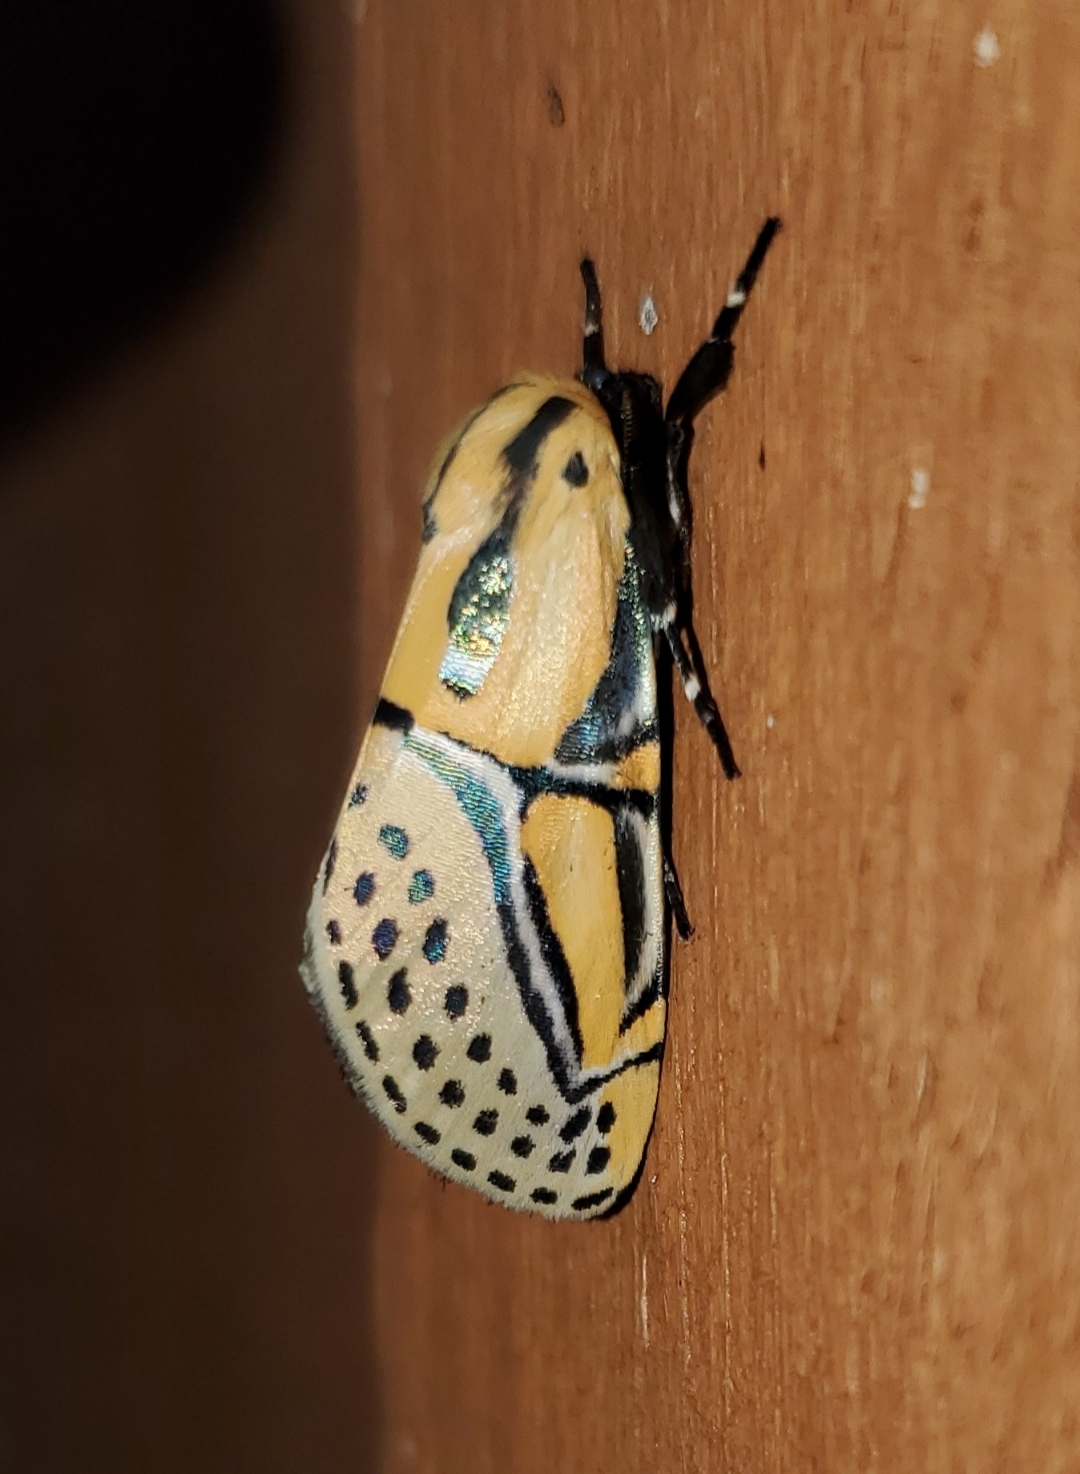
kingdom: Animalia
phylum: Arthropoda
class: Insecta
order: Lepidoptera
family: Erebidae
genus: Diphthera
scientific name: Diphthera festiva
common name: Hieroglyphic moth
